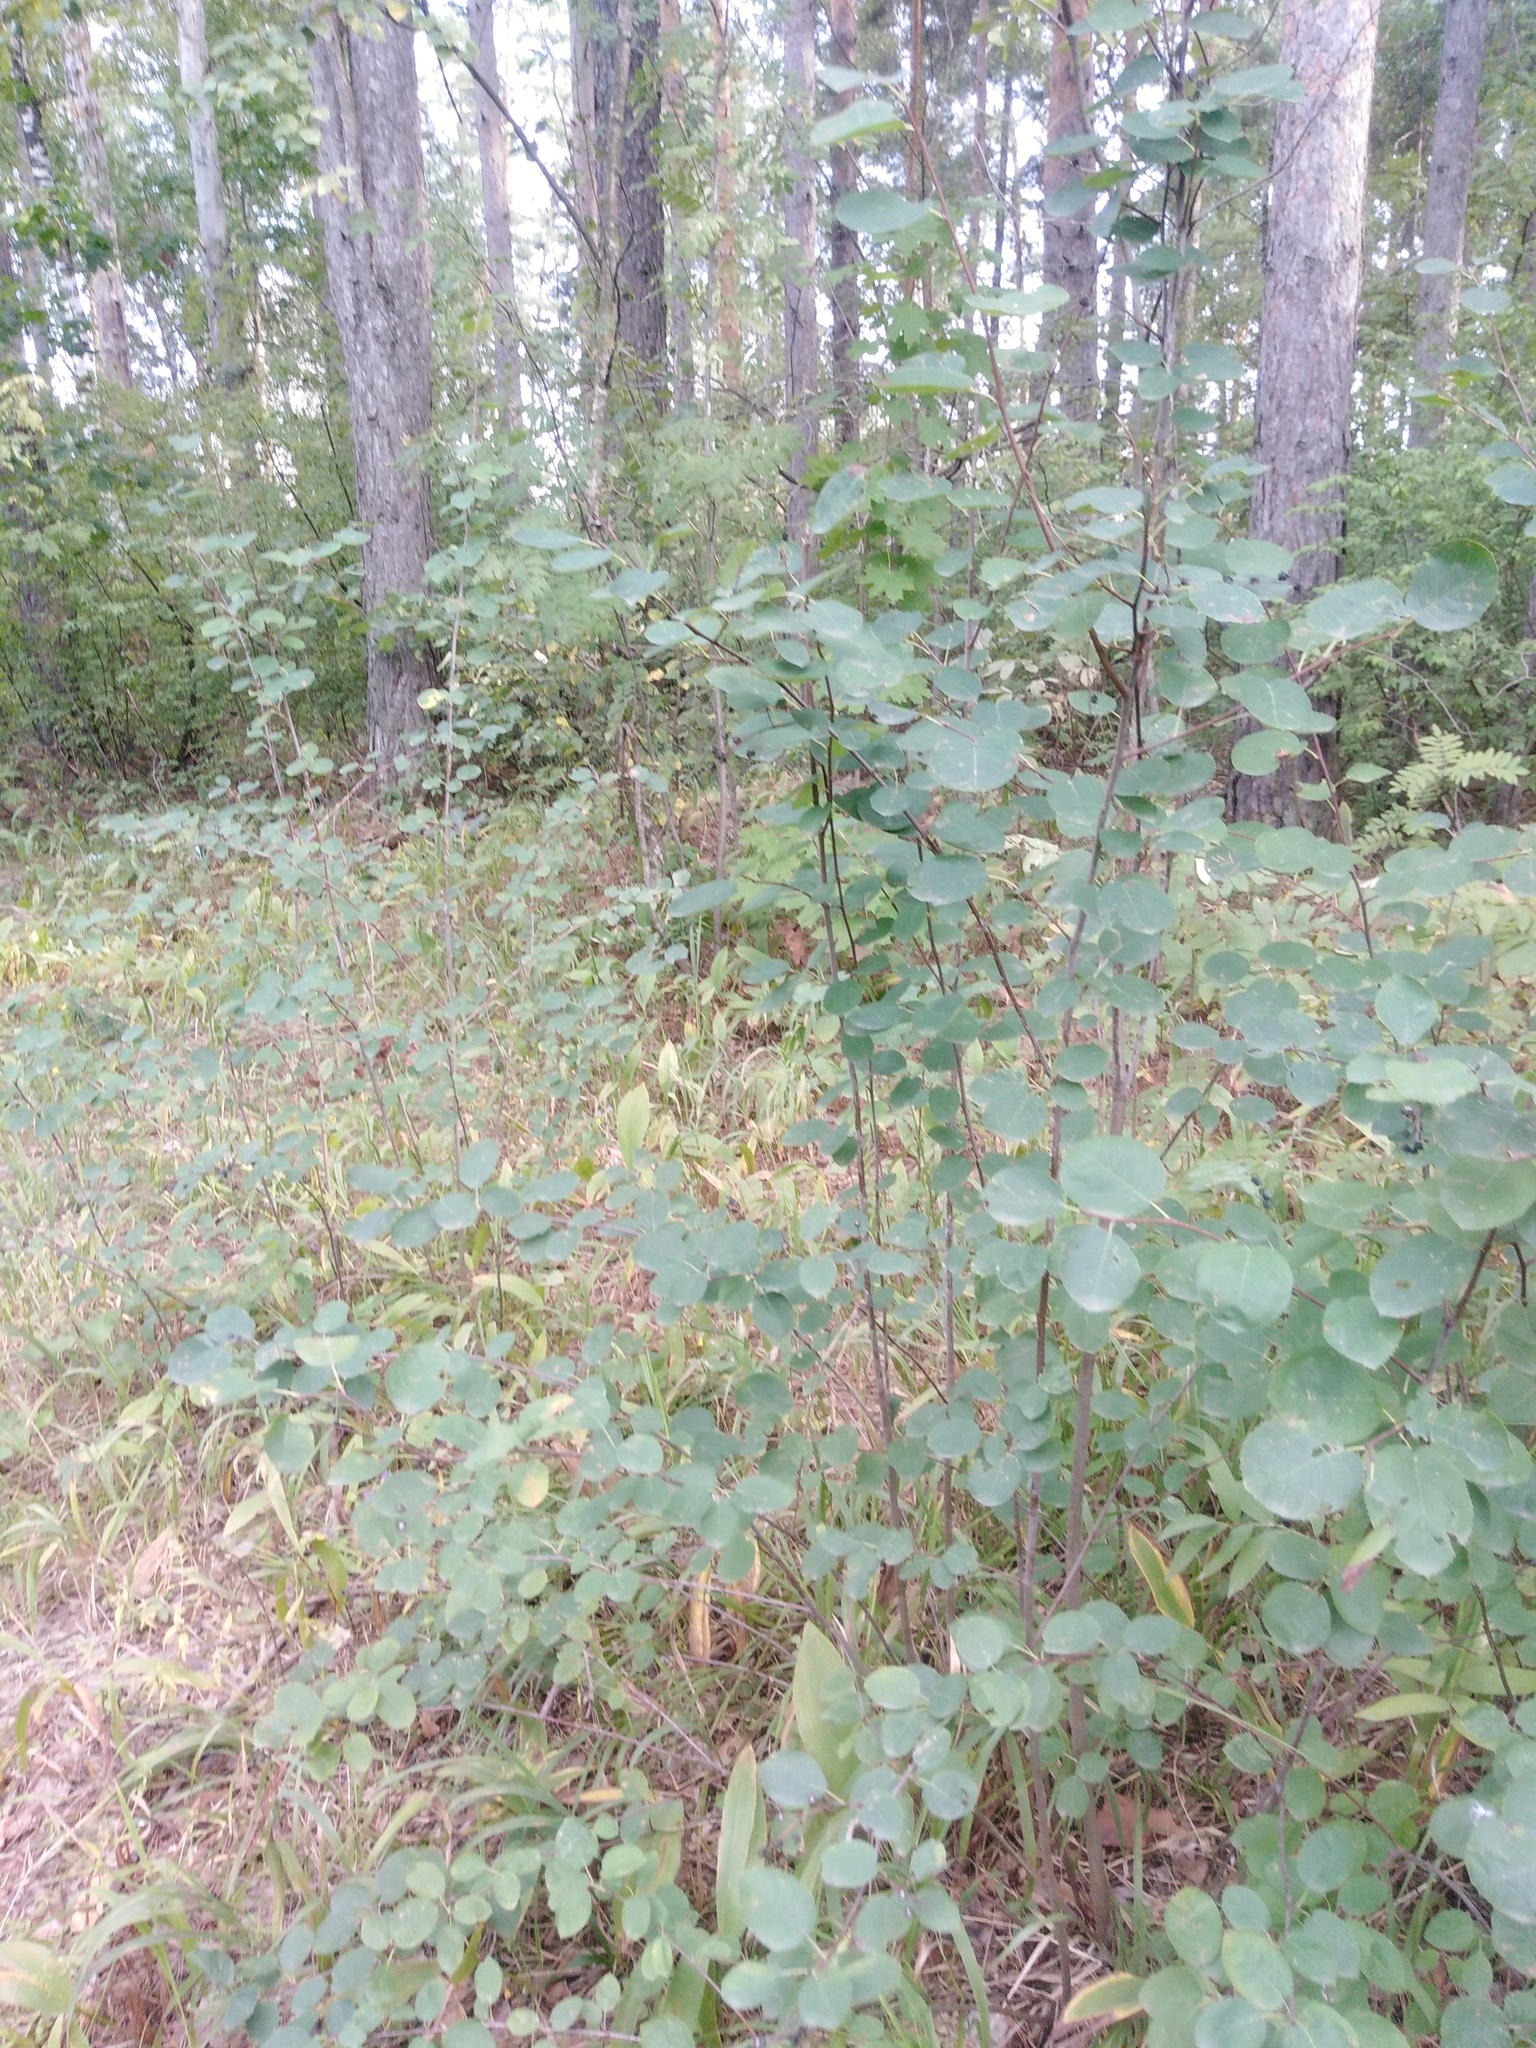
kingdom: Plantae
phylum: Tracheophyta
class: Magnoliopsida
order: Rosales
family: Rosaceae
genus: Amelanchier
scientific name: Amelanchier
